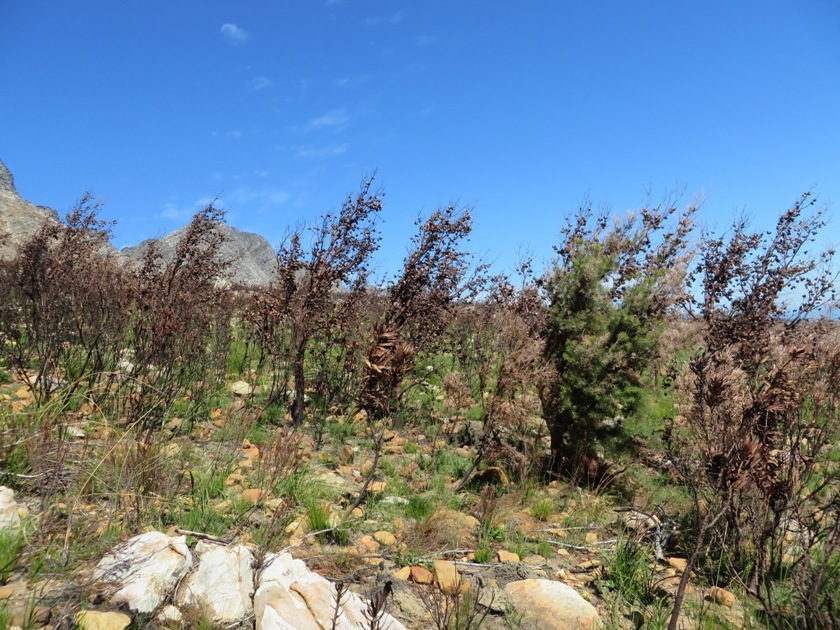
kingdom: Plantae
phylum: Tracheophyta
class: Magnoliopsida
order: Proteales
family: Proteaceae
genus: Hakea
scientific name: Hakea sericea
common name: Needle bush
